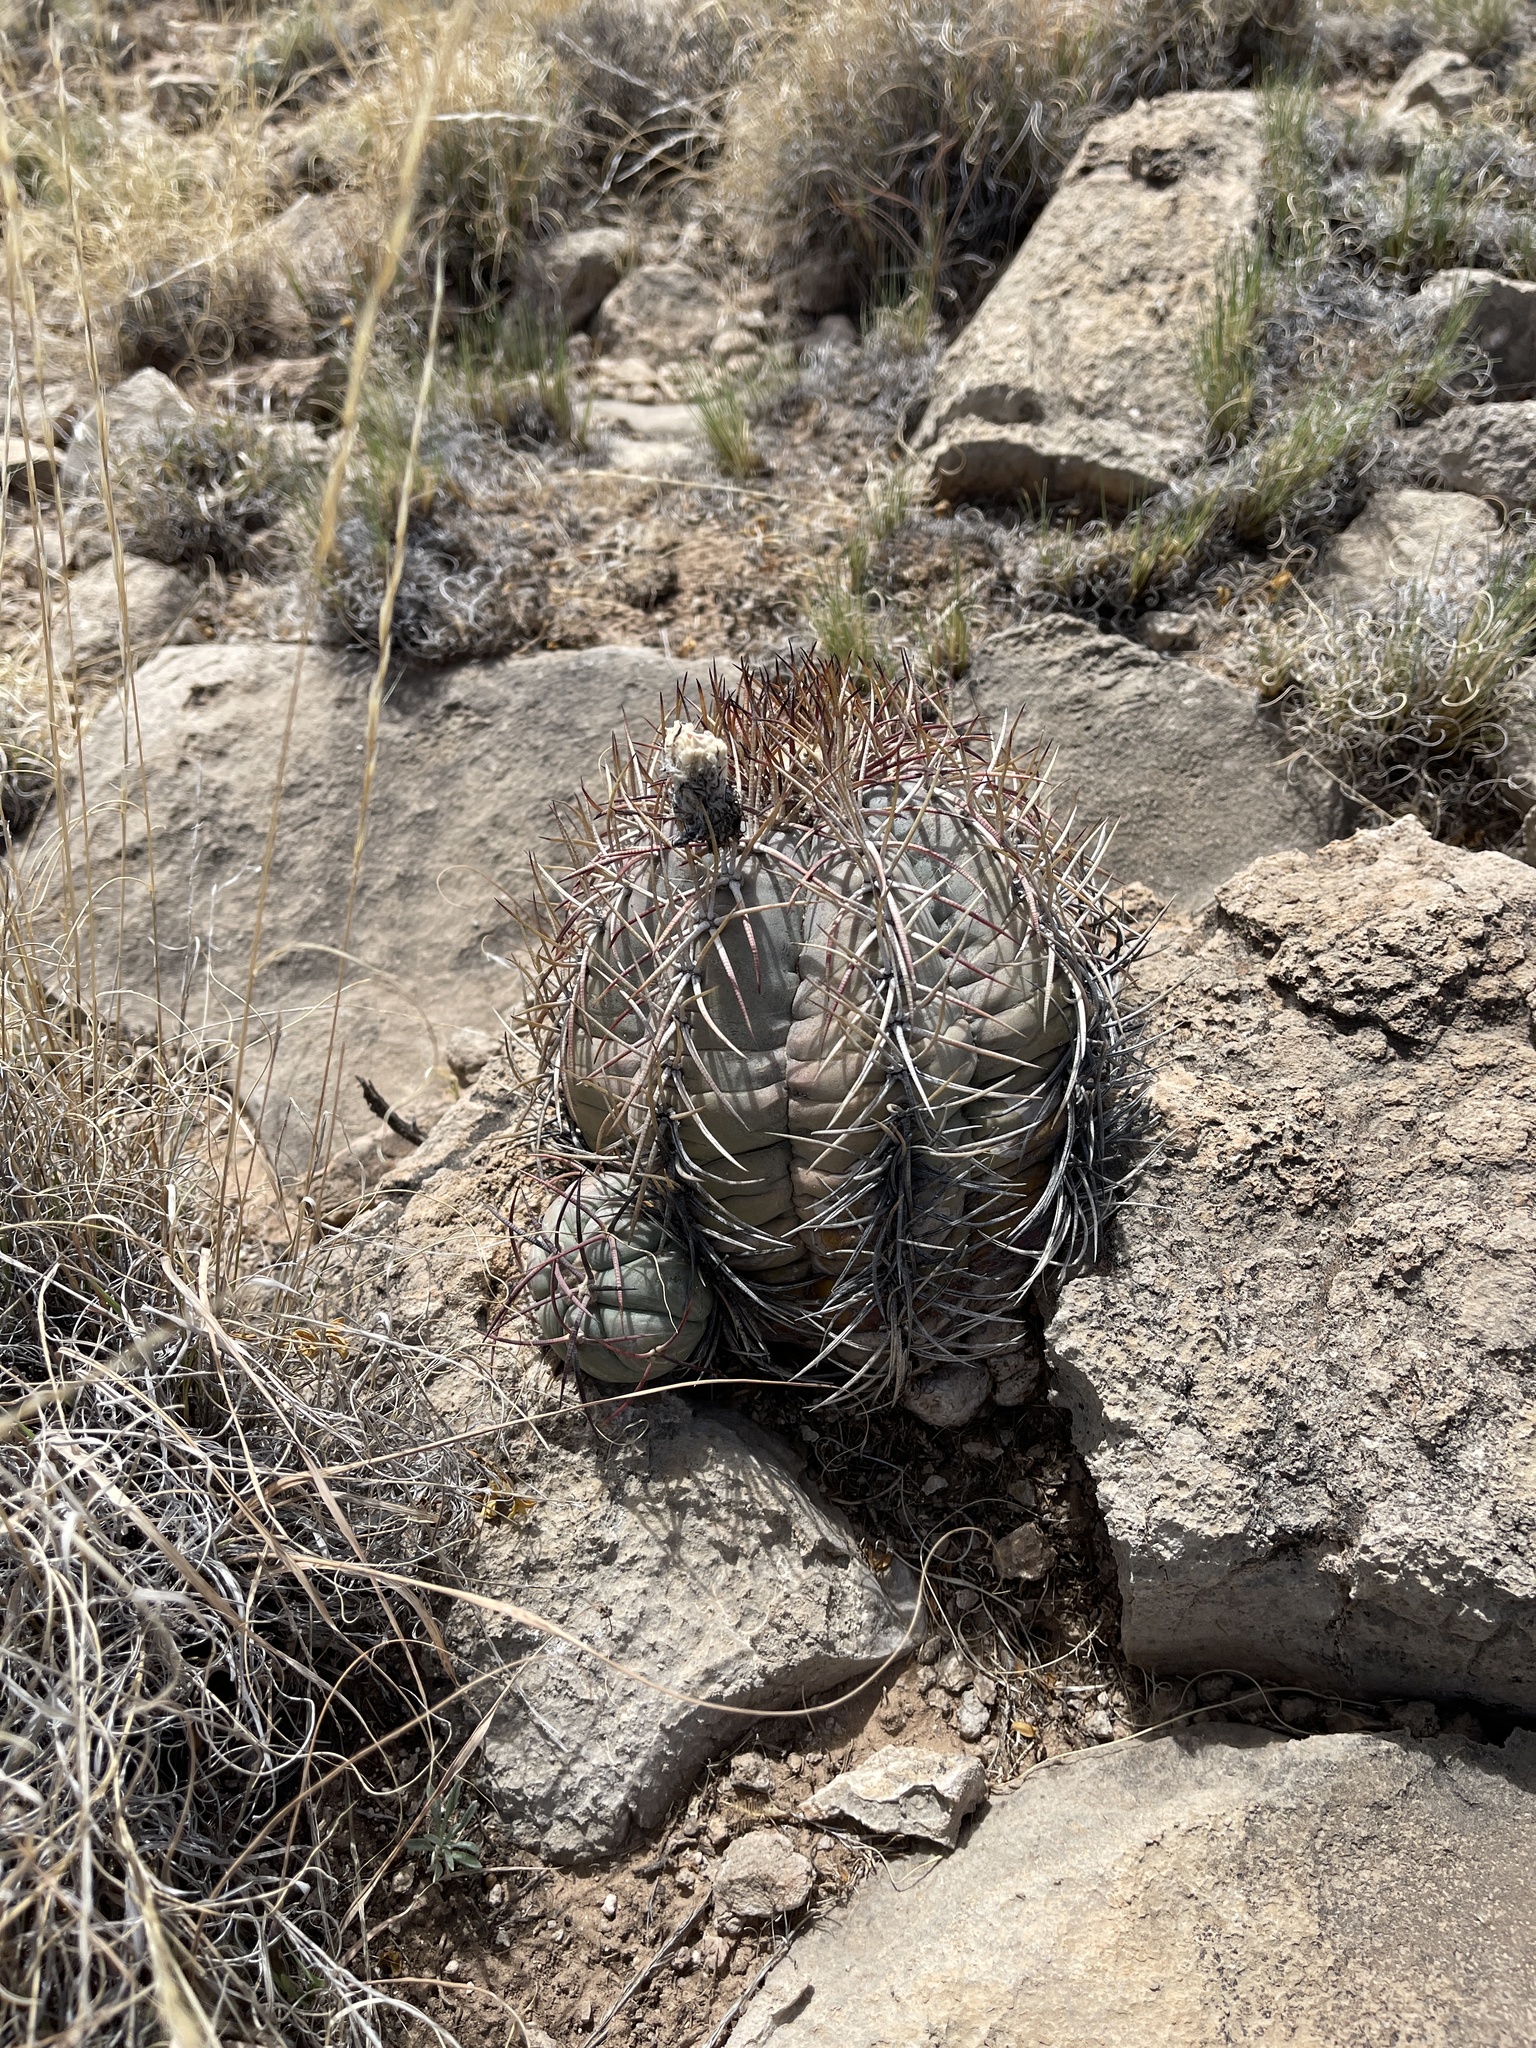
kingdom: Plantae
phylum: Tracheophyta
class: Magnoliopsida
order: Caryophyllales
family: Cactaceae
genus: Echinocactus
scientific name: Echinocactus horizonthalonius
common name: Devilshead
